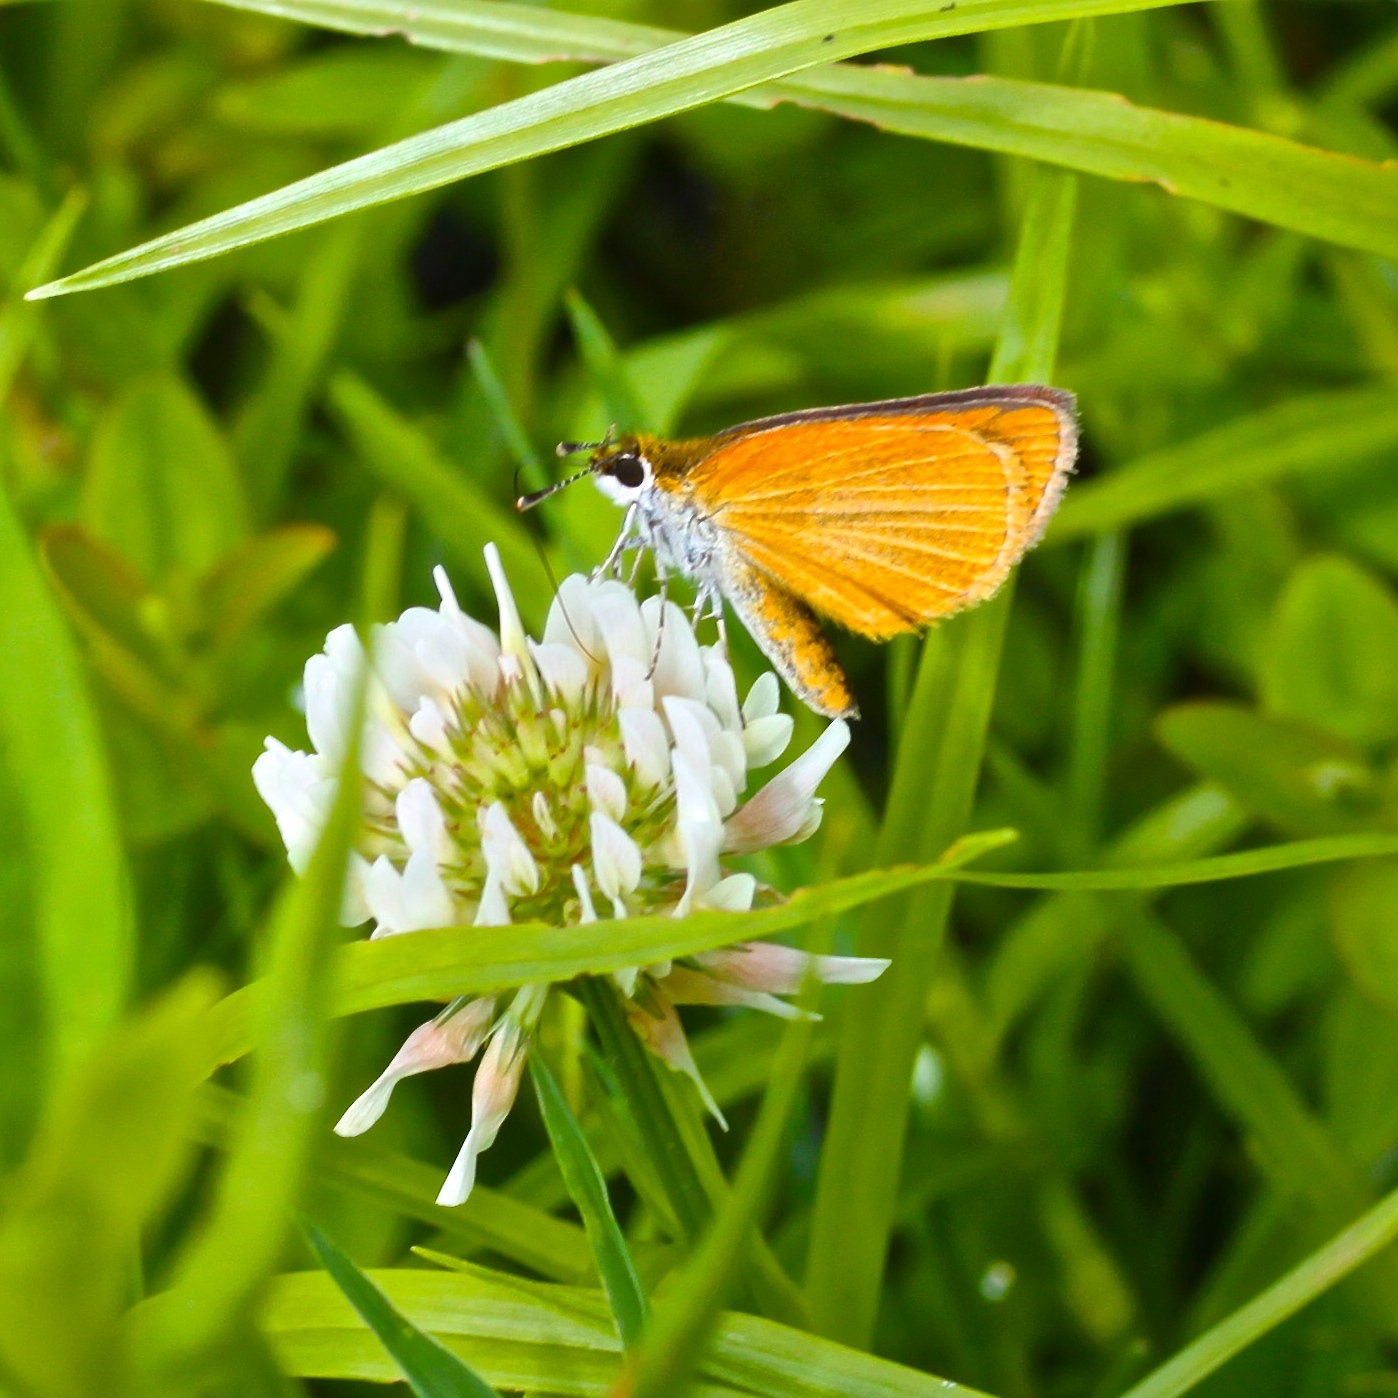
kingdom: Animalia
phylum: Arthropoda
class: Insecta
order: Lepidoptera
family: Hesperiidae
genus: Ancyloxypha
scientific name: Ancyloxypha numitor
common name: Least skipper
